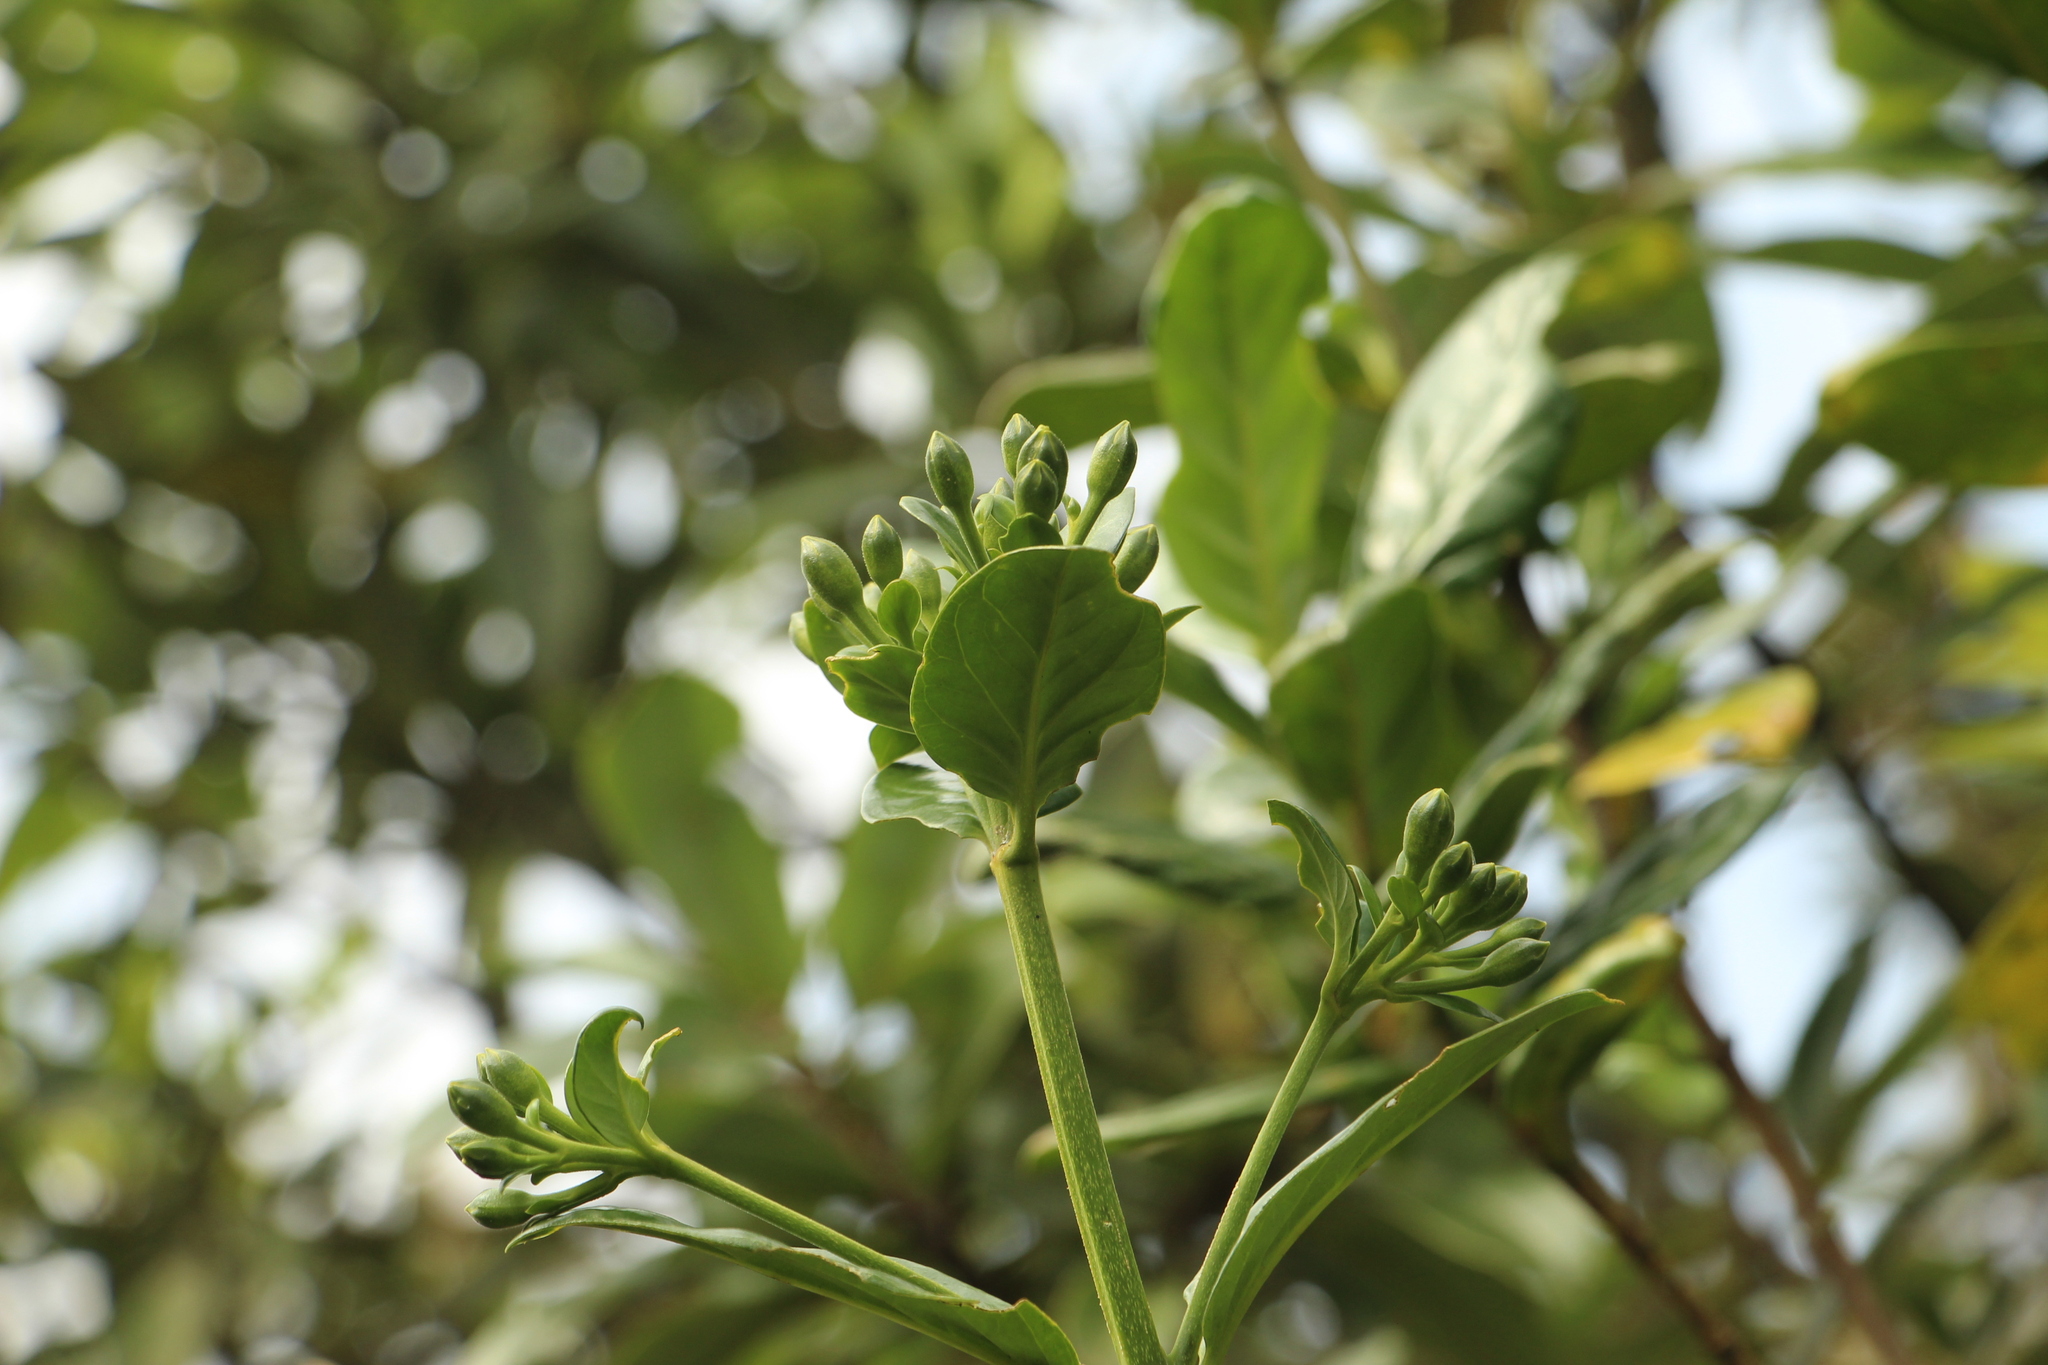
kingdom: Plantae
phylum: Tracheophyta
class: Magnoliopsida
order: Gentianales
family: Gentianaceae
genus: Macrocarpaea
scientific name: Macrocarpaea glabra
